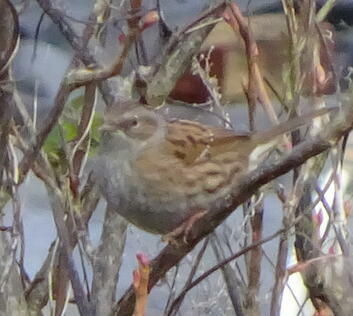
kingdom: Animalia
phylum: Chordata
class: Aves
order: Passeriformes
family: Prunellidae
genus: Prunella
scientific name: Prunella modularis
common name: Dunnock
